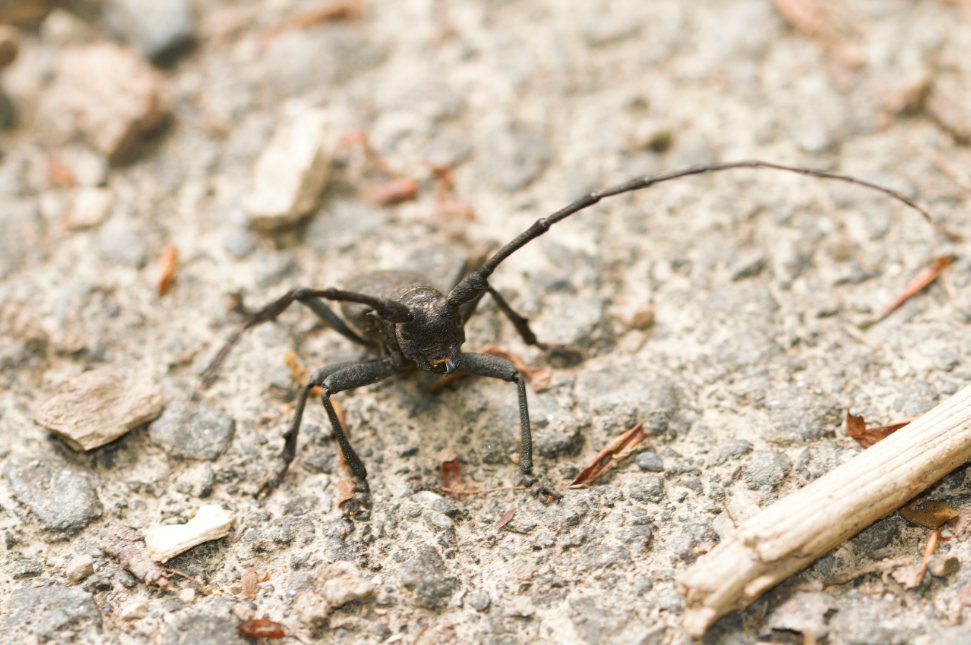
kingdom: Animalia
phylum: Arthropoda
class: Insecta
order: Coleoptera
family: Cerambycidae
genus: Morimus
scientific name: Morimus asper
